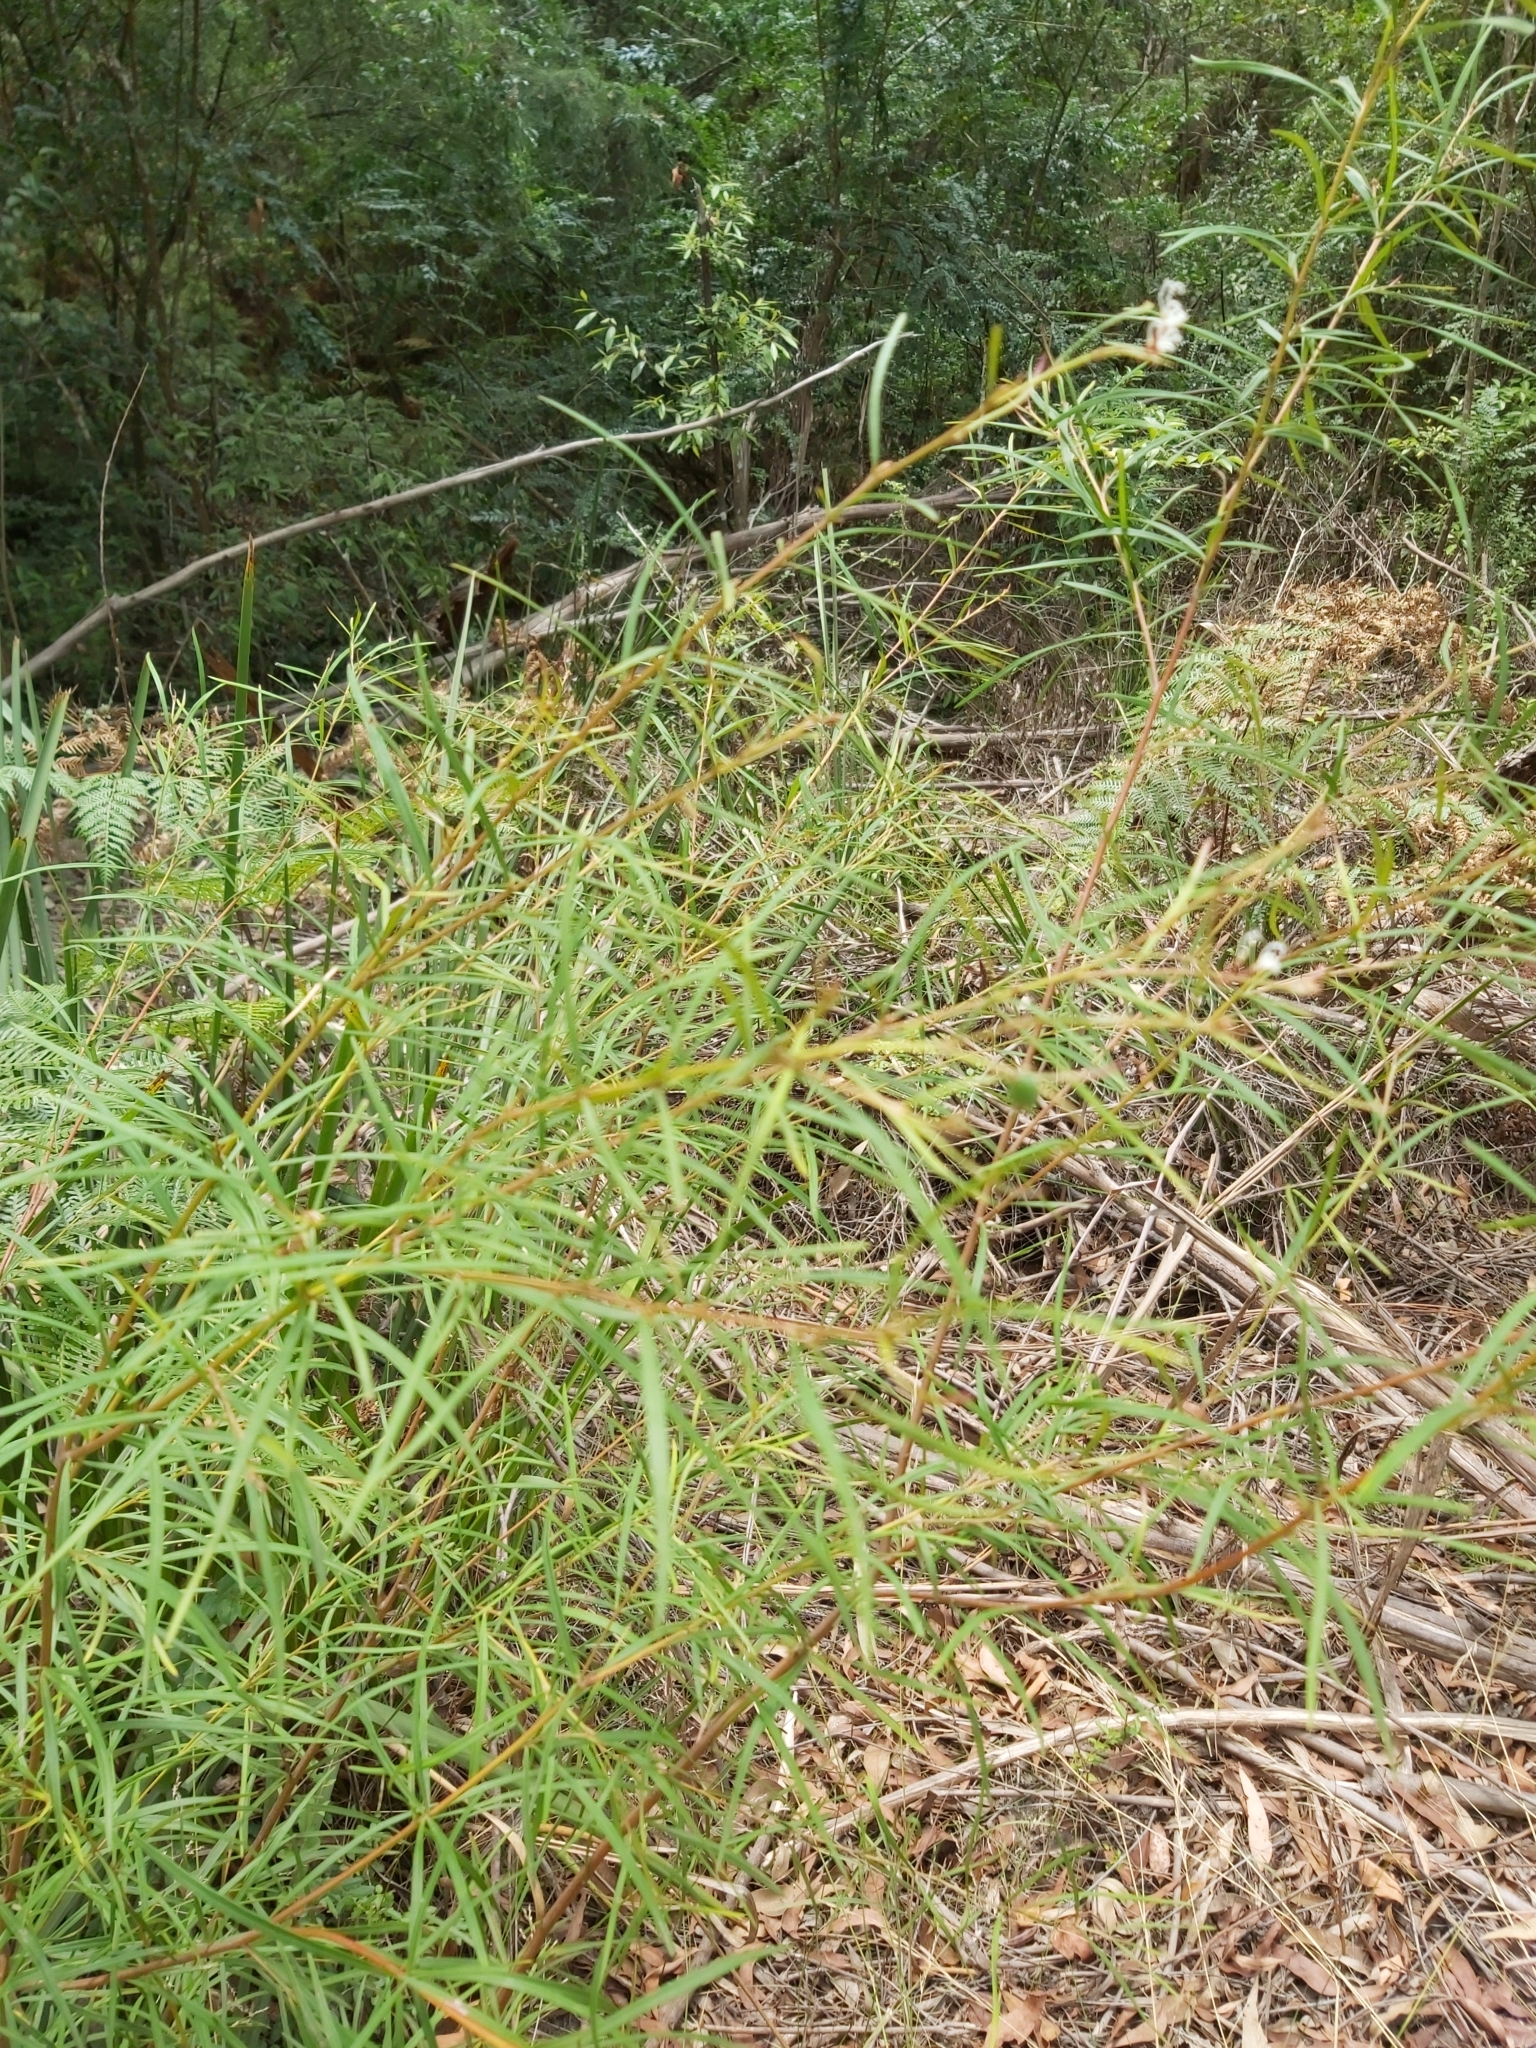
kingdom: Plantae
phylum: Tracheophyta
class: Magnoliopsida
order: Proteales
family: Proteaceae
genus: Grevillea
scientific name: Grevillea linearifolia
